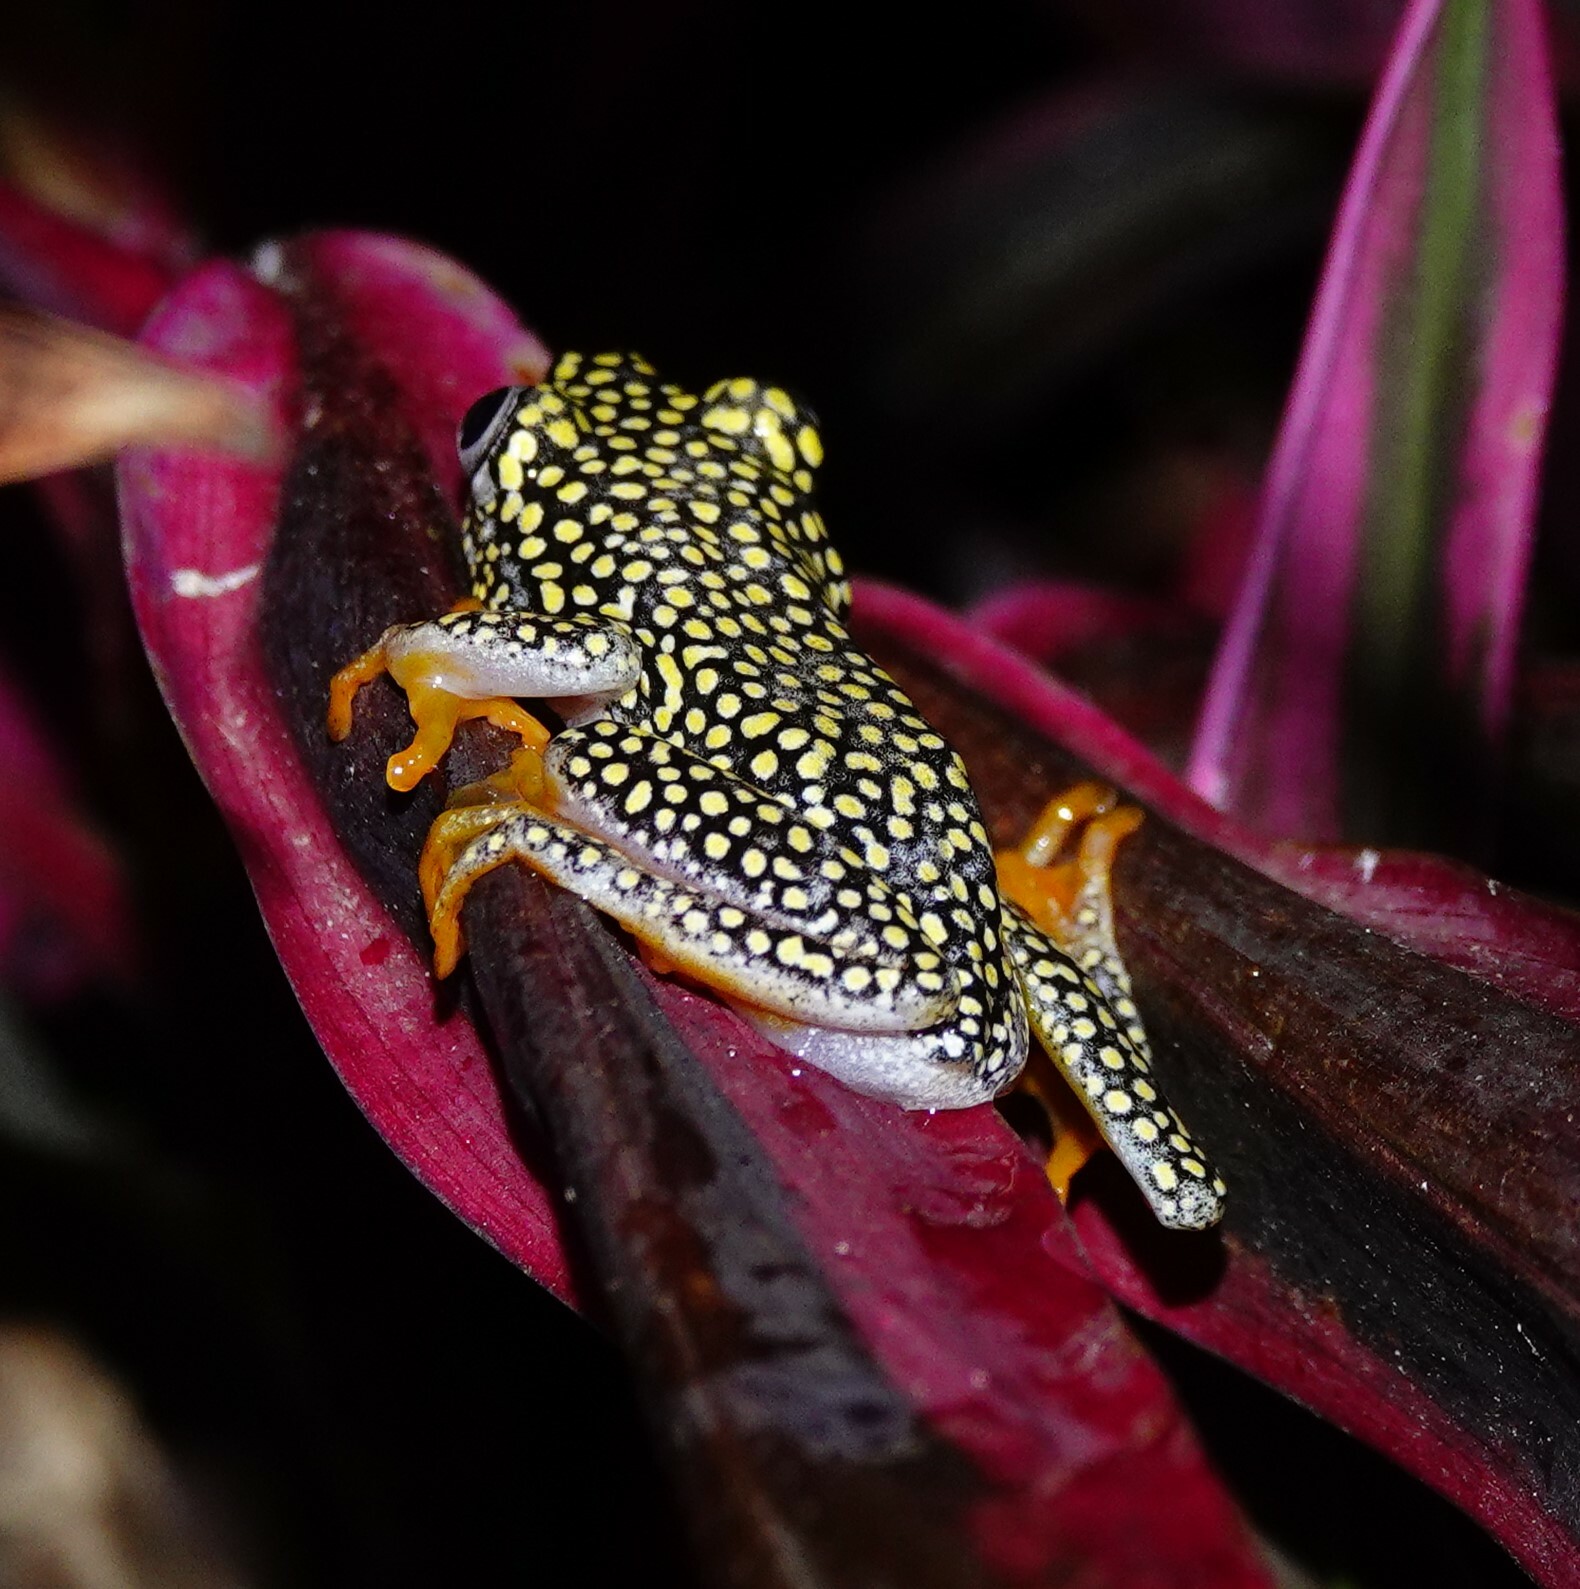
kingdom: Animalia
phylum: Chordata
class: Amphibia
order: Anura
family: Hyperoliidae
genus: Heterixalus
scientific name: Heterixalus alboguttatus
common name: Whitebelly reed frog
